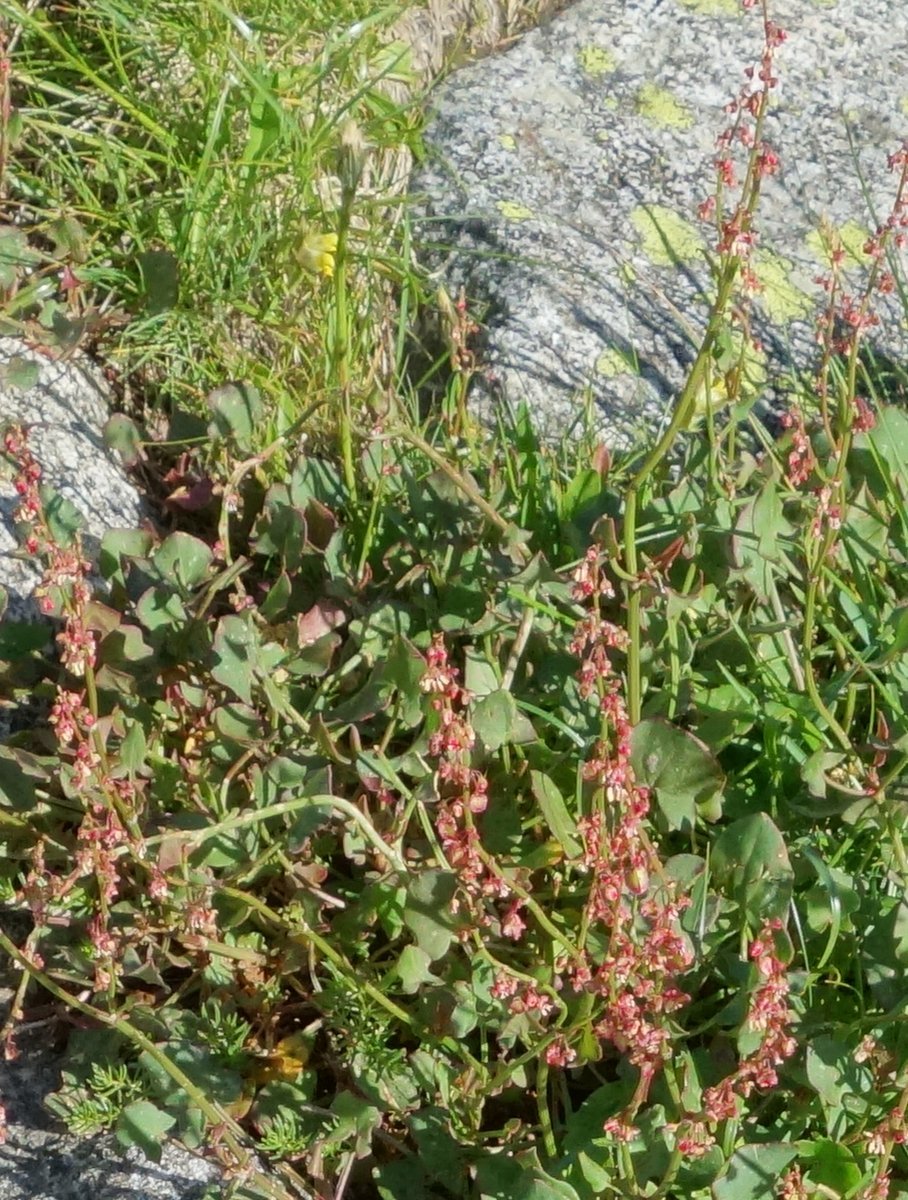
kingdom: Plantae
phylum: Tracheophyta
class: Magnoliopsida
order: Caryophyllales
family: Polygonaceae
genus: Rumex
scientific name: Rumex scutatus
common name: French sorrel
